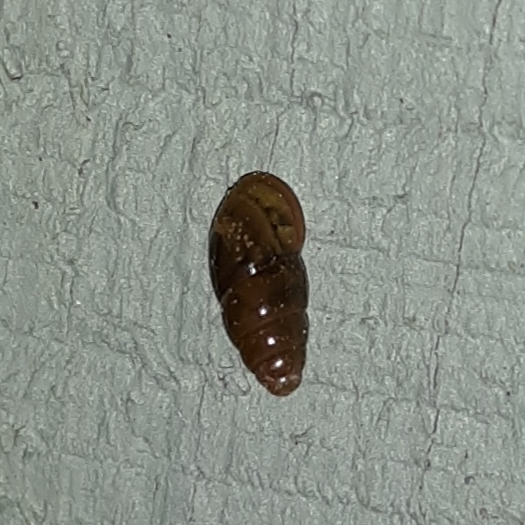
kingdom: Animalia
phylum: Mollusca
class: Gastropoda
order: Stylommatophora
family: Cochlicopidae
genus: Cochlicopa
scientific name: Cochlicopa lubrica
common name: Glossy pillar snail
